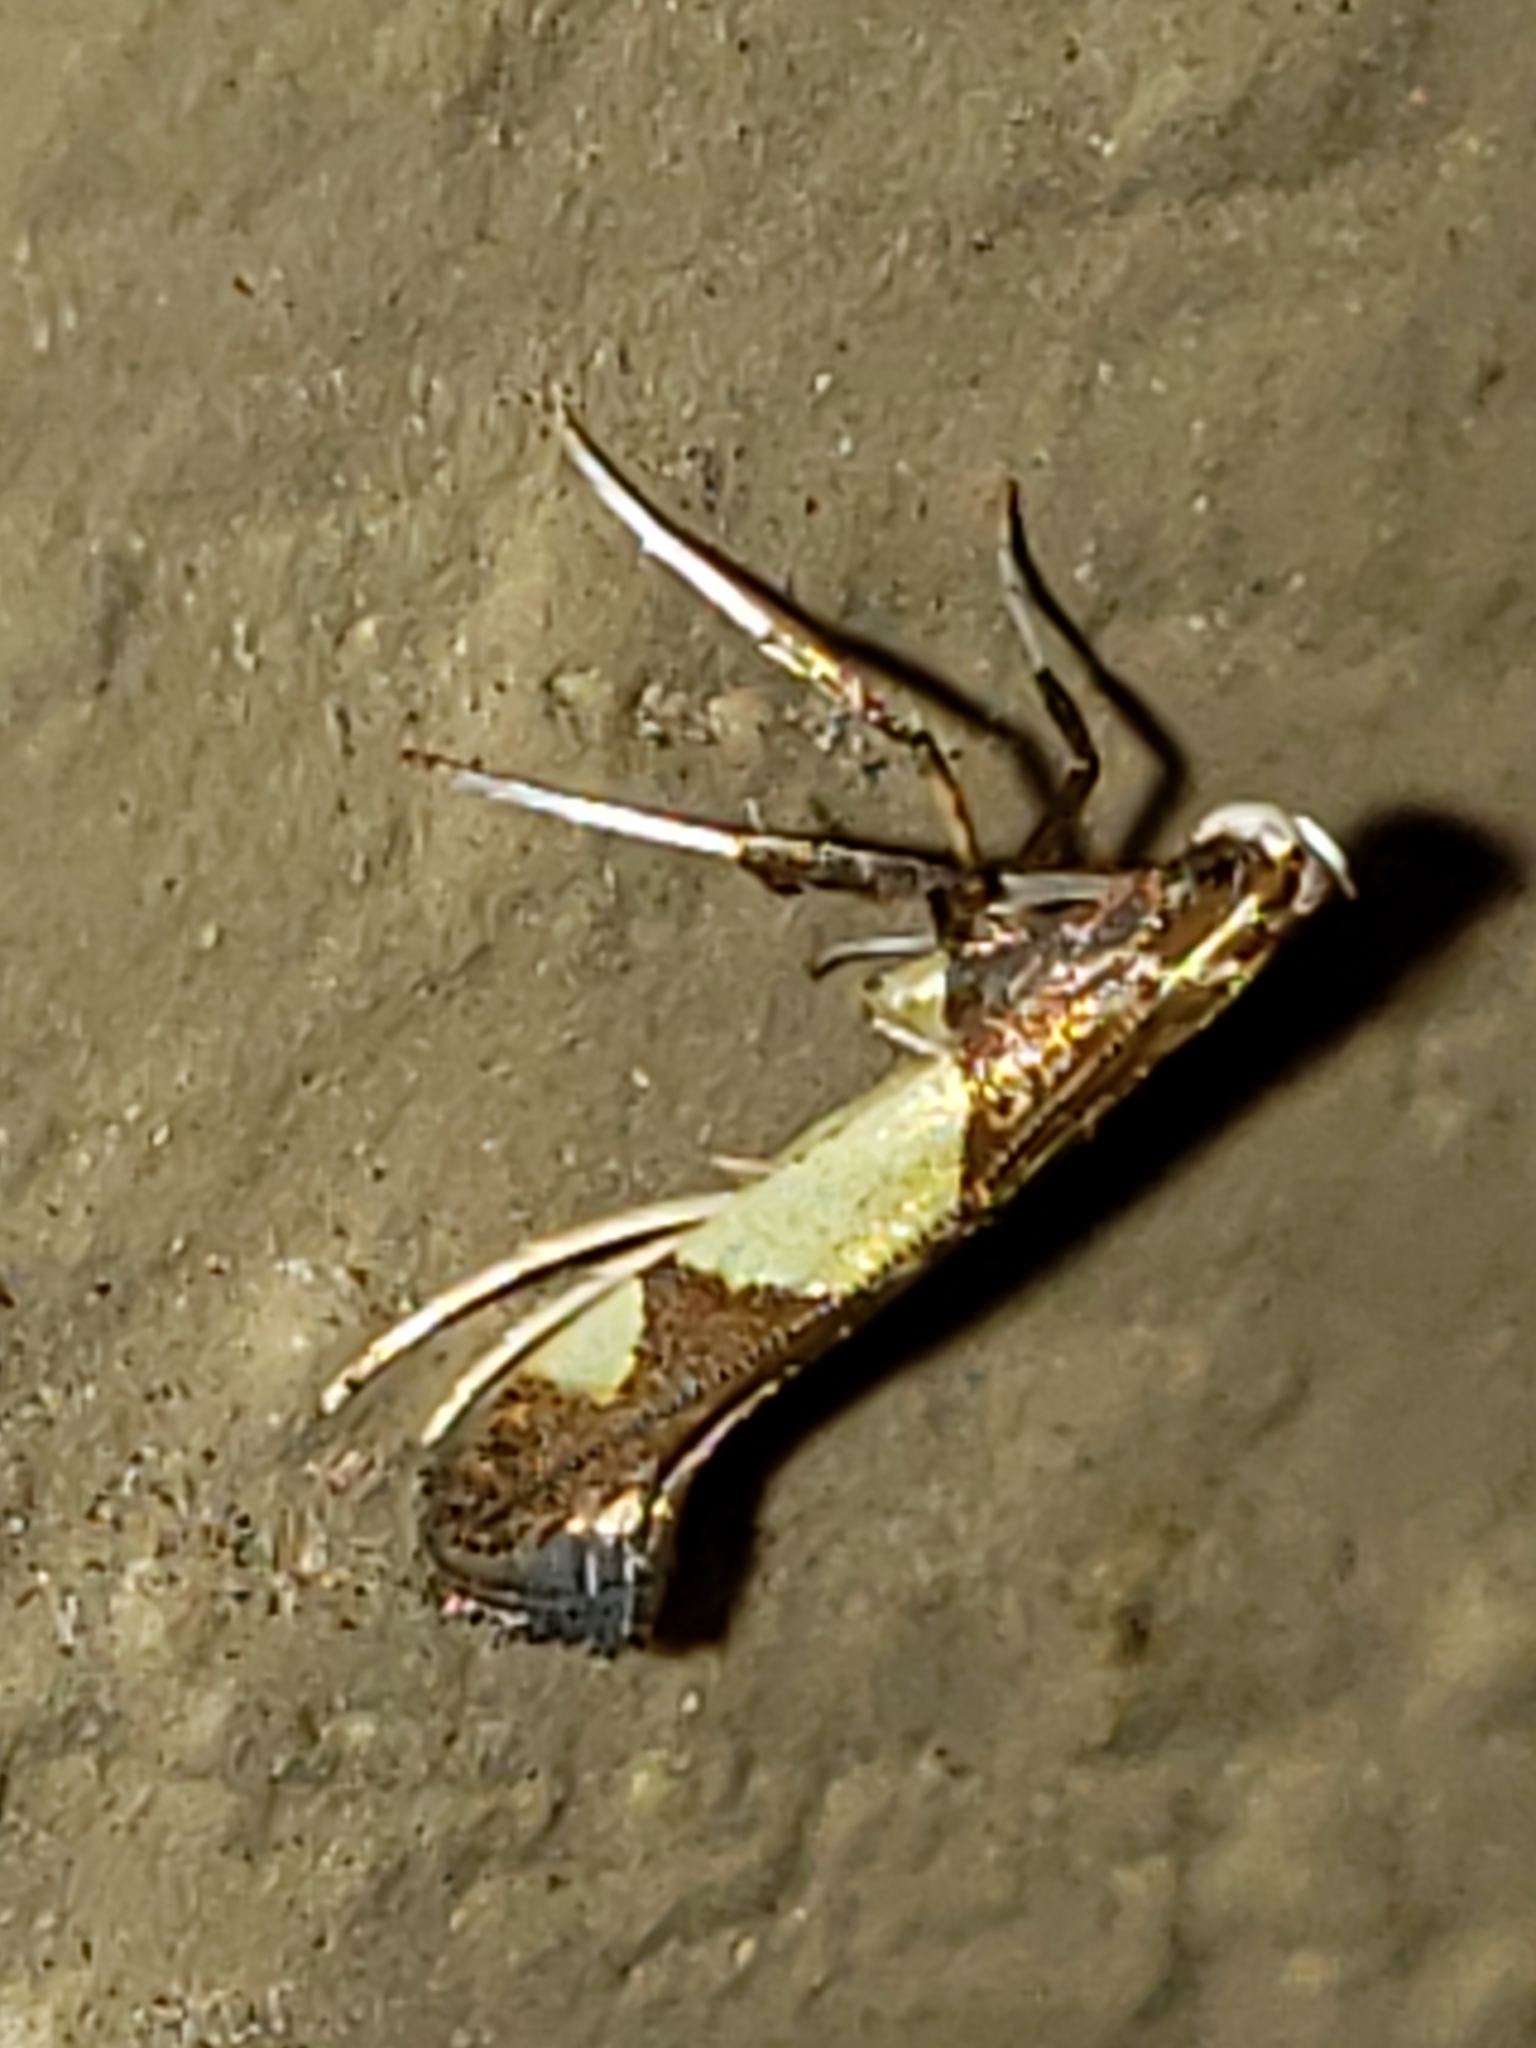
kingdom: Animalia
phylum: Arthropoda
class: Insecta
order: Lepidoptera
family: Gracillariidae
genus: Caloptilia
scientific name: Caloptilia bimaculatella
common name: Maple caloptilia moth
